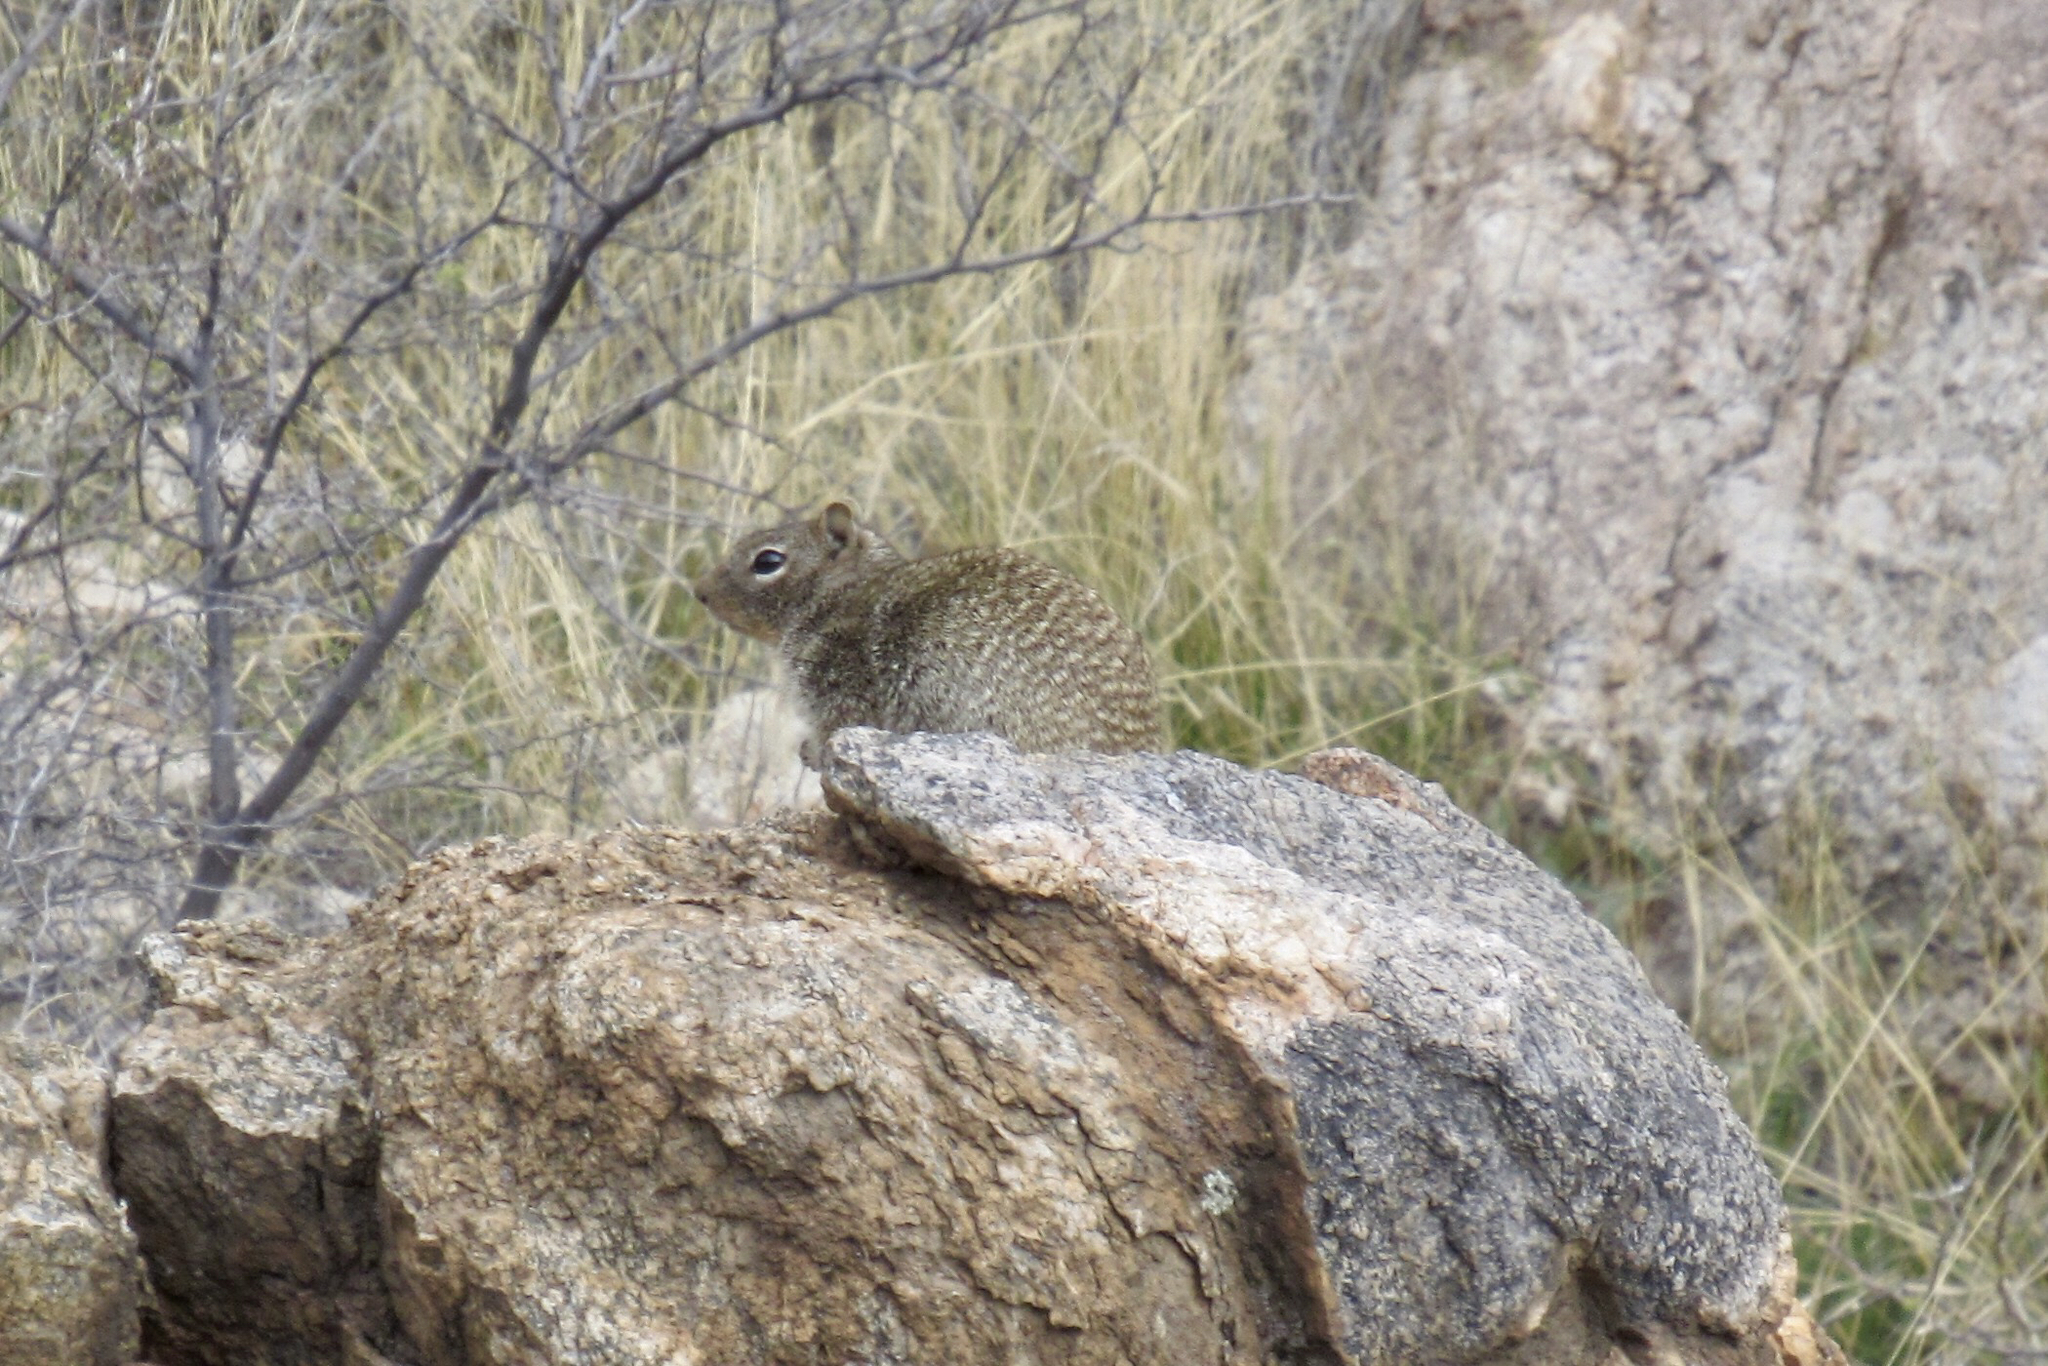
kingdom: Animalia
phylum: Chordata
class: Mammalia
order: Rodentia
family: Sciuridae
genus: Otospermophilus
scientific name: Otospermophilus variegatus
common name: Rock squirrel
